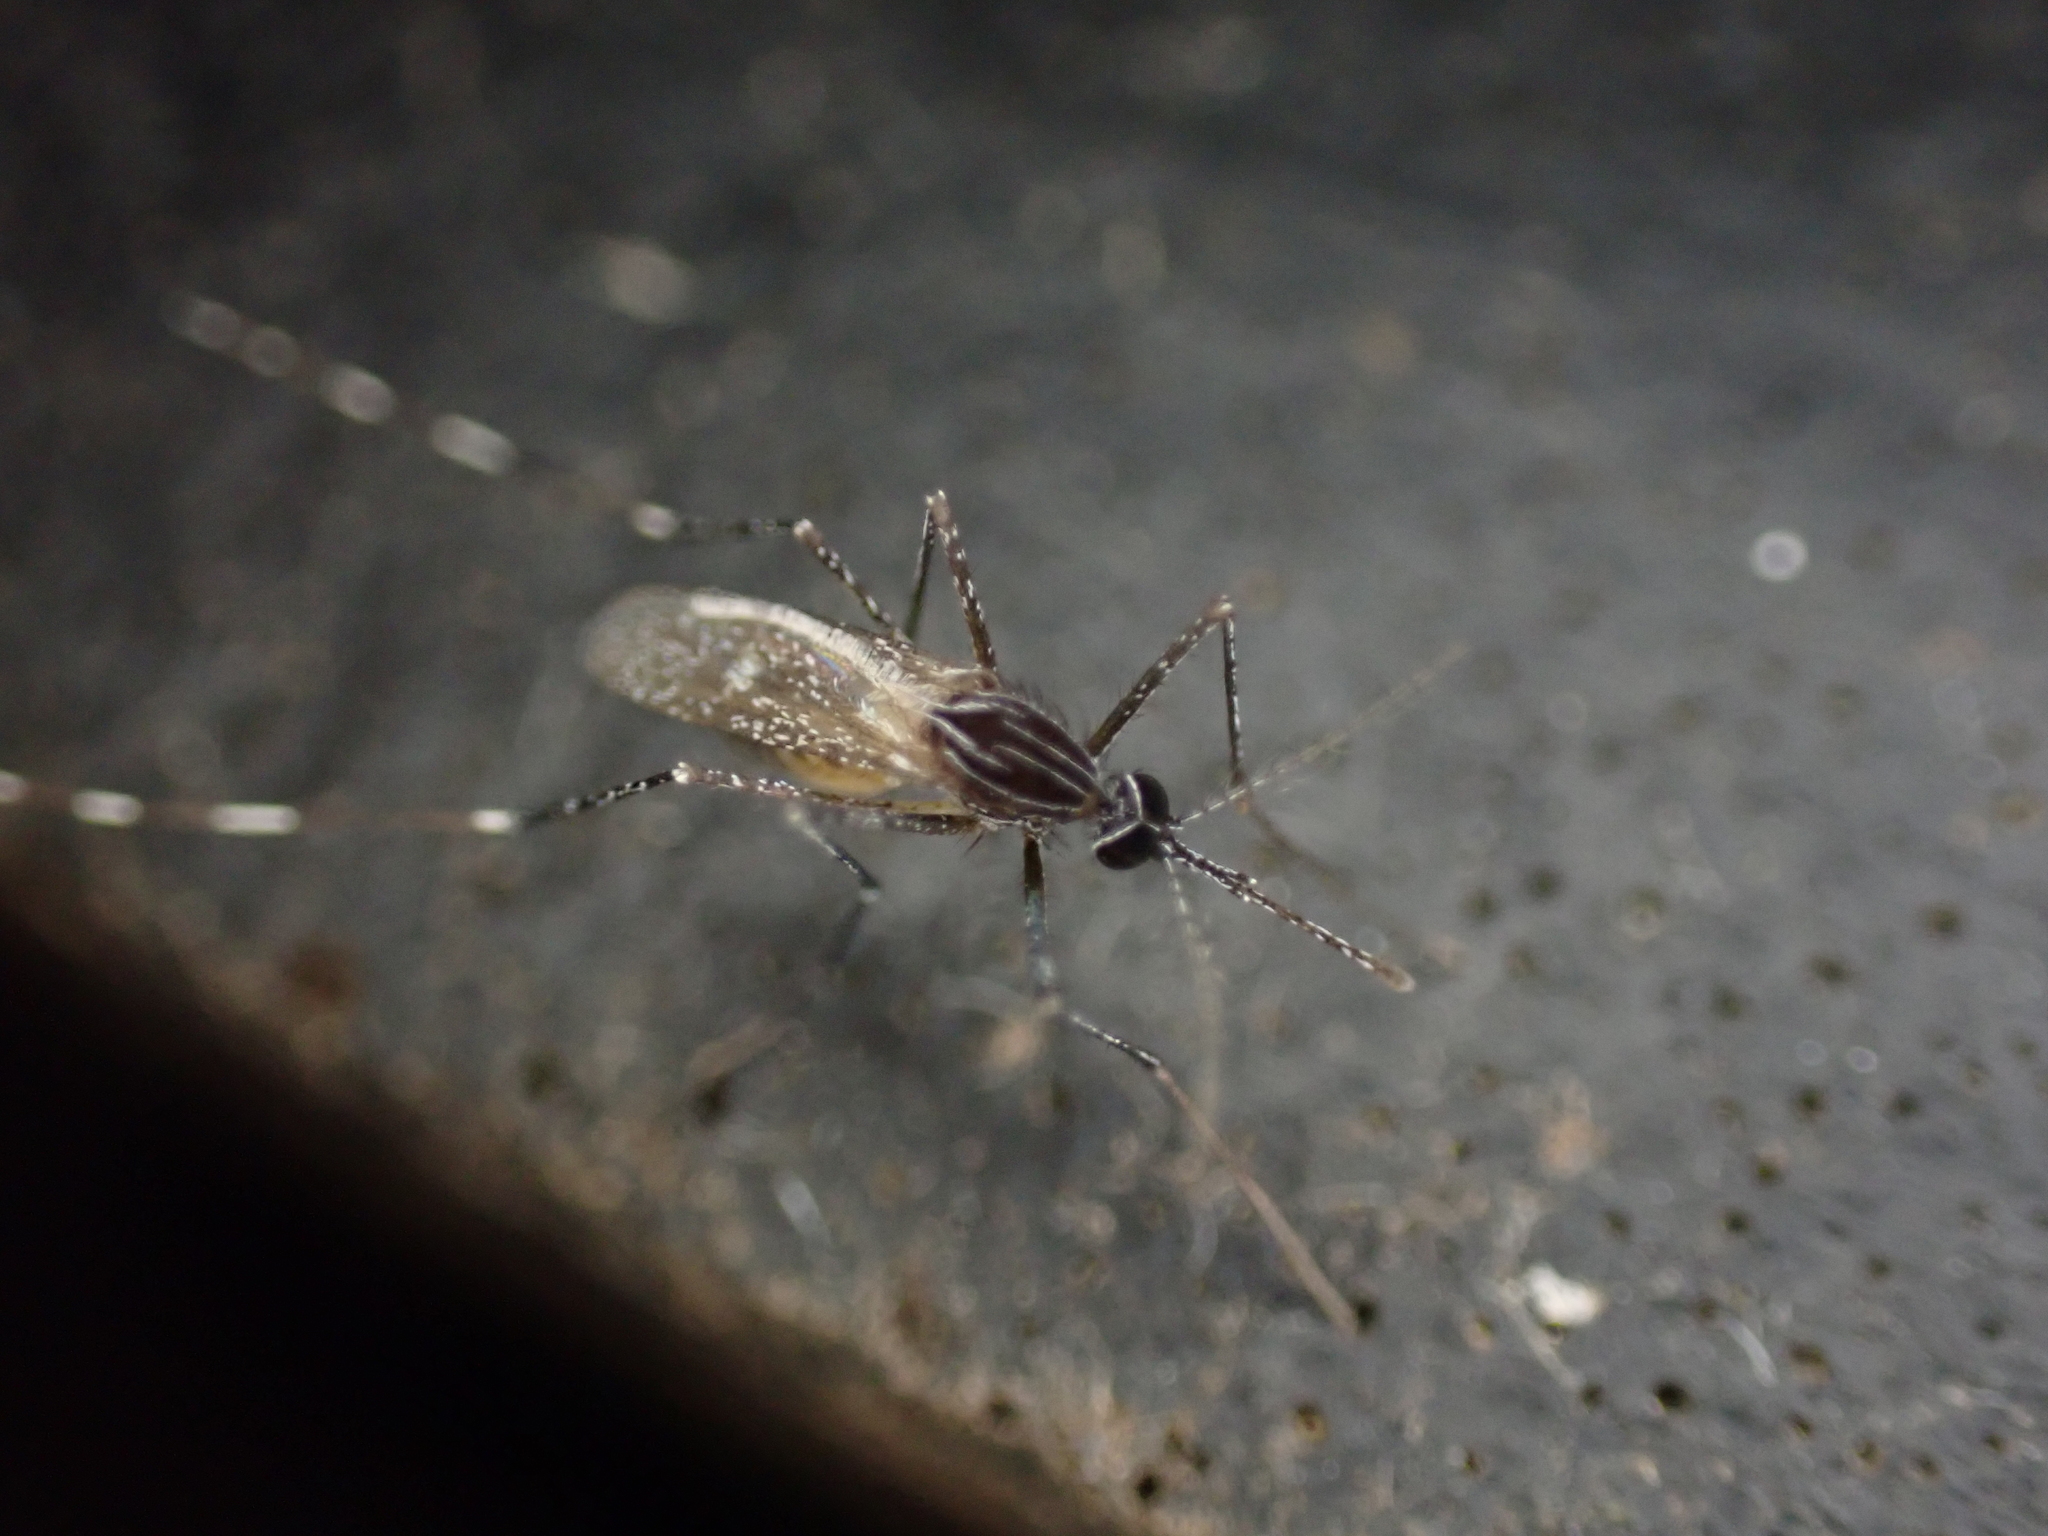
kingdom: Animalia
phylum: Arthropoda
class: Insecta
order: Diptera
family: Culicidae
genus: Orthopodomyia
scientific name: Orthopodomyia signifera
